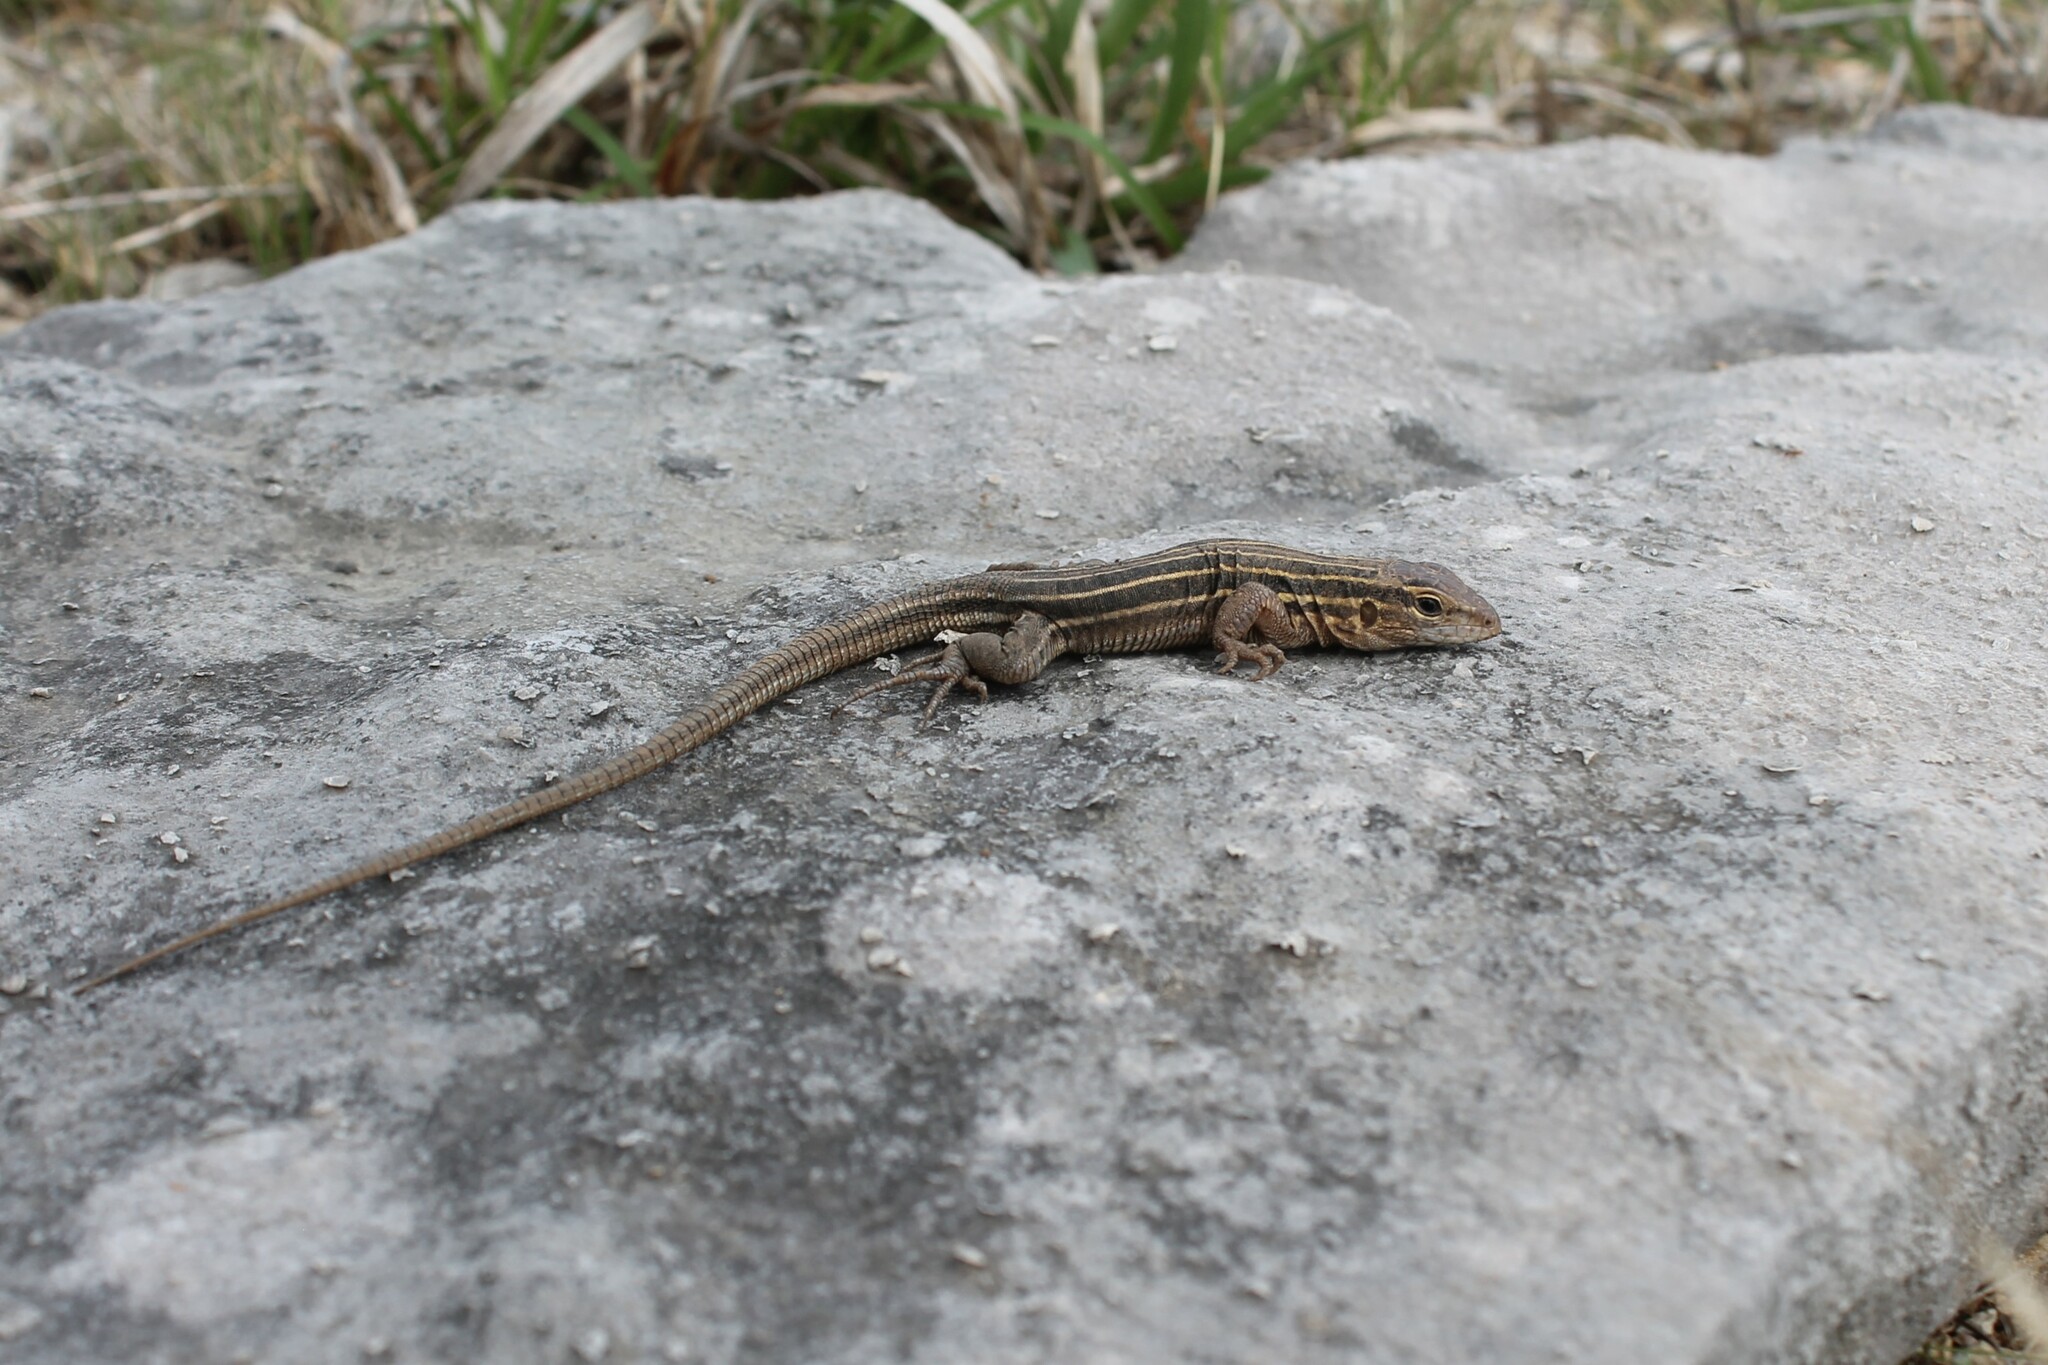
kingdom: Animalia
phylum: Chordata
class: Squamata
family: Teiidae
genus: Aspidoscelis
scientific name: Aspidoscelis sexlineatus
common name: Six-lined racerunner
